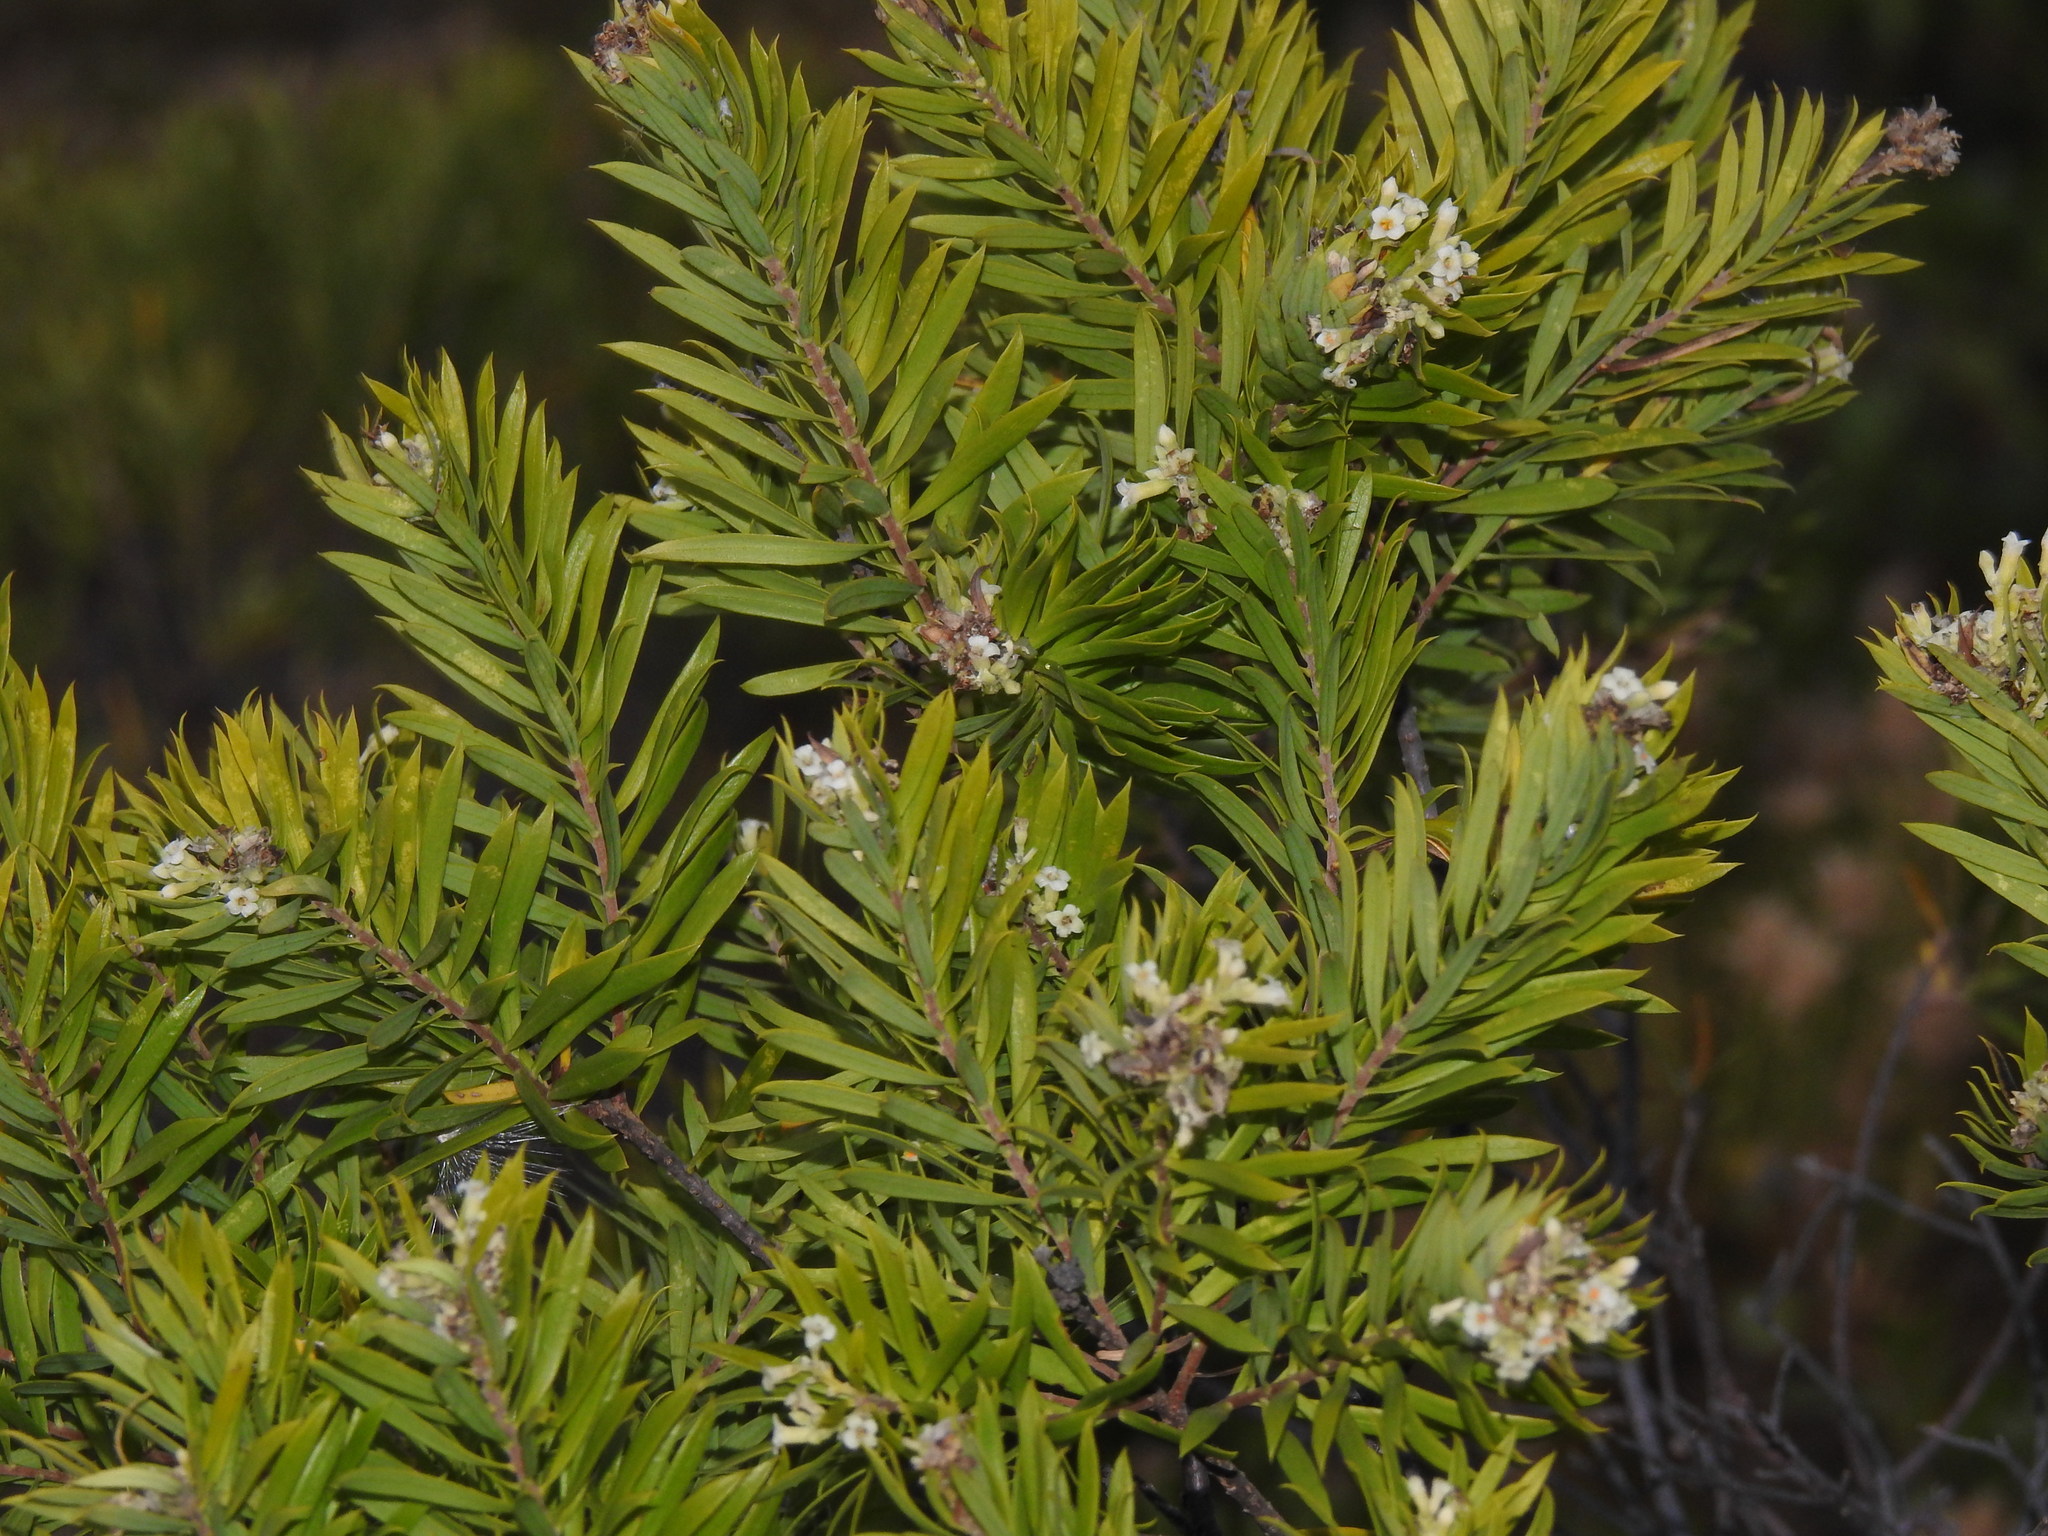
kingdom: Plantae
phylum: Tracheophyta
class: Magnoliopsida
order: Malvales
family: Thymelaeaceae
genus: Daphne
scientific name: Daphne gnidium
